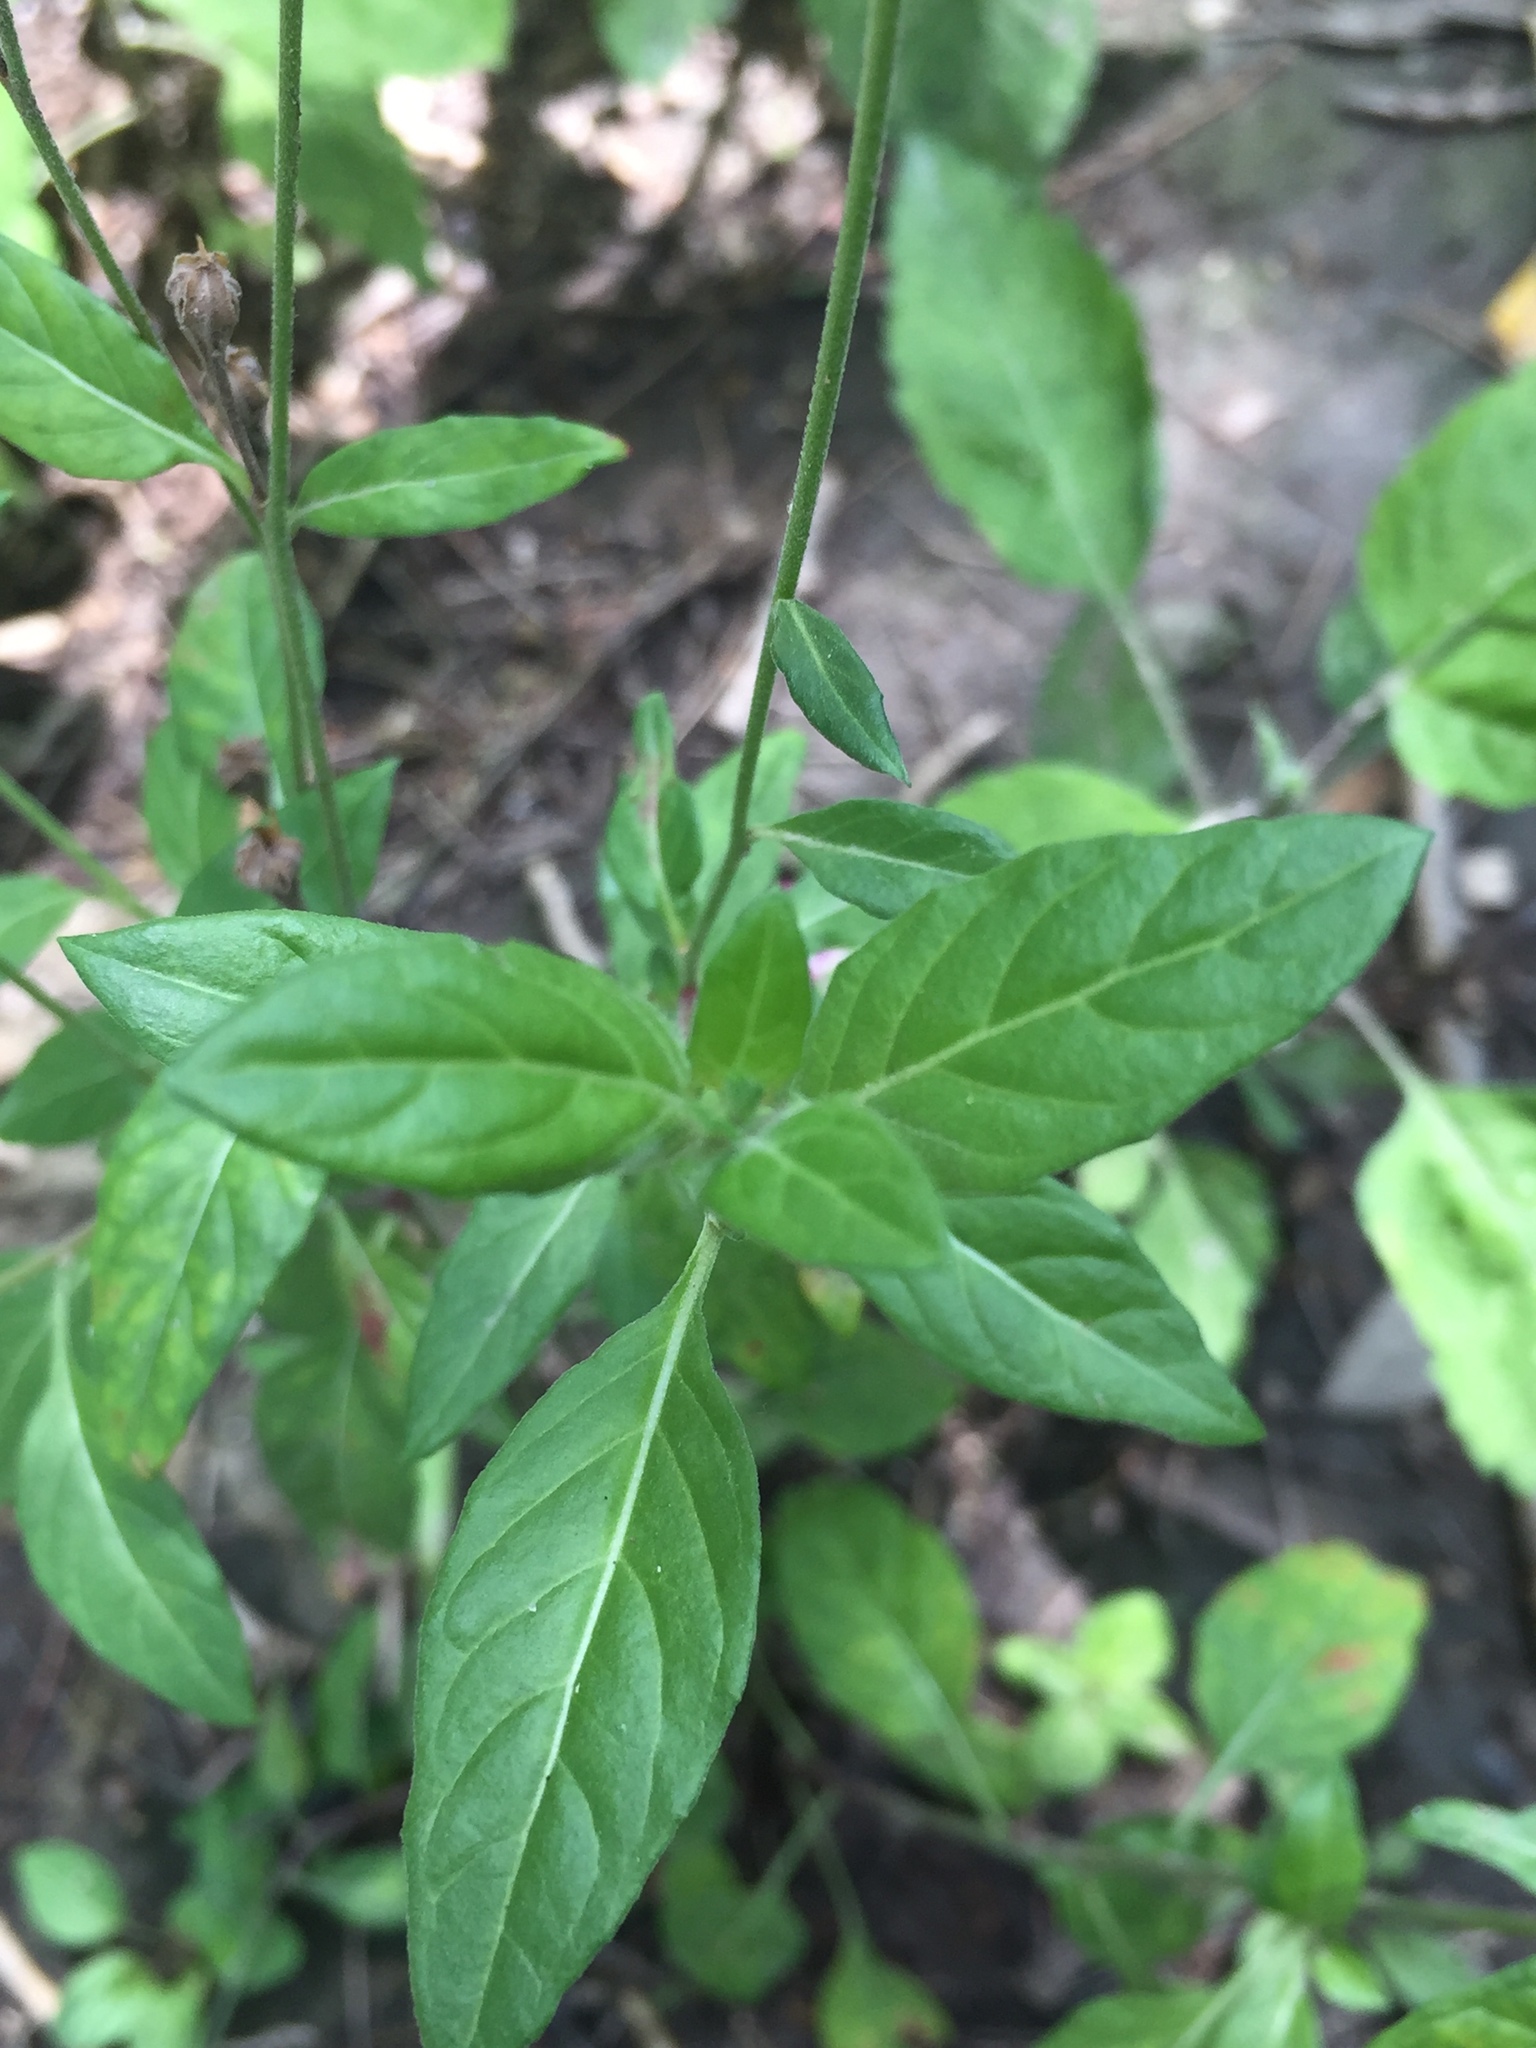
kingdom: Plantae
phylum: Tracheophyta
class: Magnoliopsida
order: Myrtales
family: Onagraceae
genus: Oenothera
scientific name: Oenothera rosea
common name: Rosy evening-primrose
